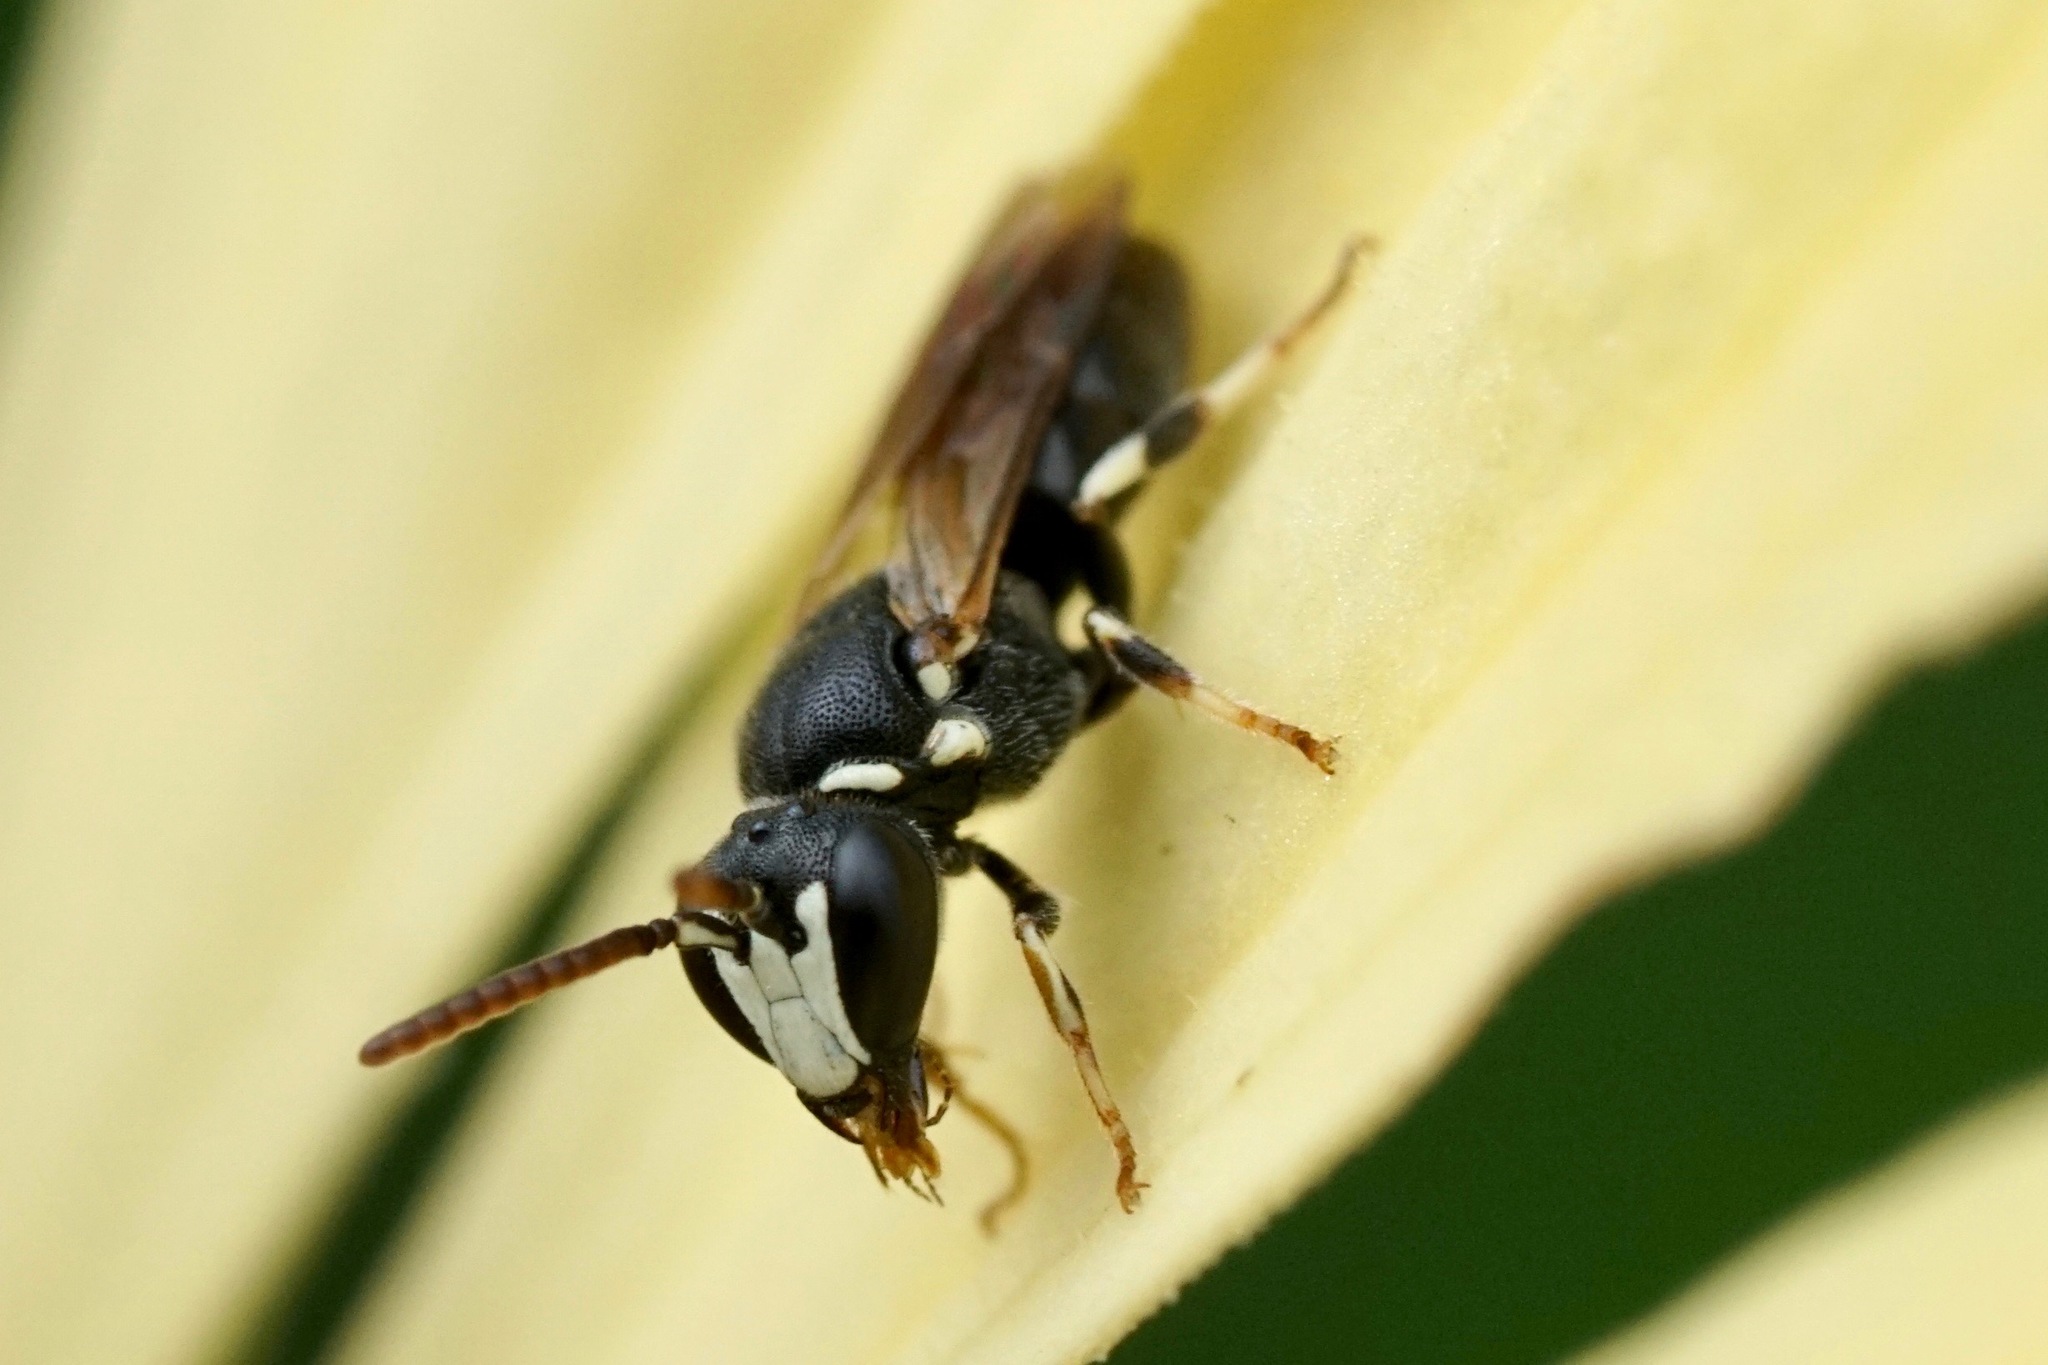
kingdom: Animalia
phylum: Arthropoda
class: Insecta
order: Hymenoptera
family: Colletidae
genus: Hylaeus
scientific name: Hylaeus leptocephalus
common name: Slender-faced masked bee
